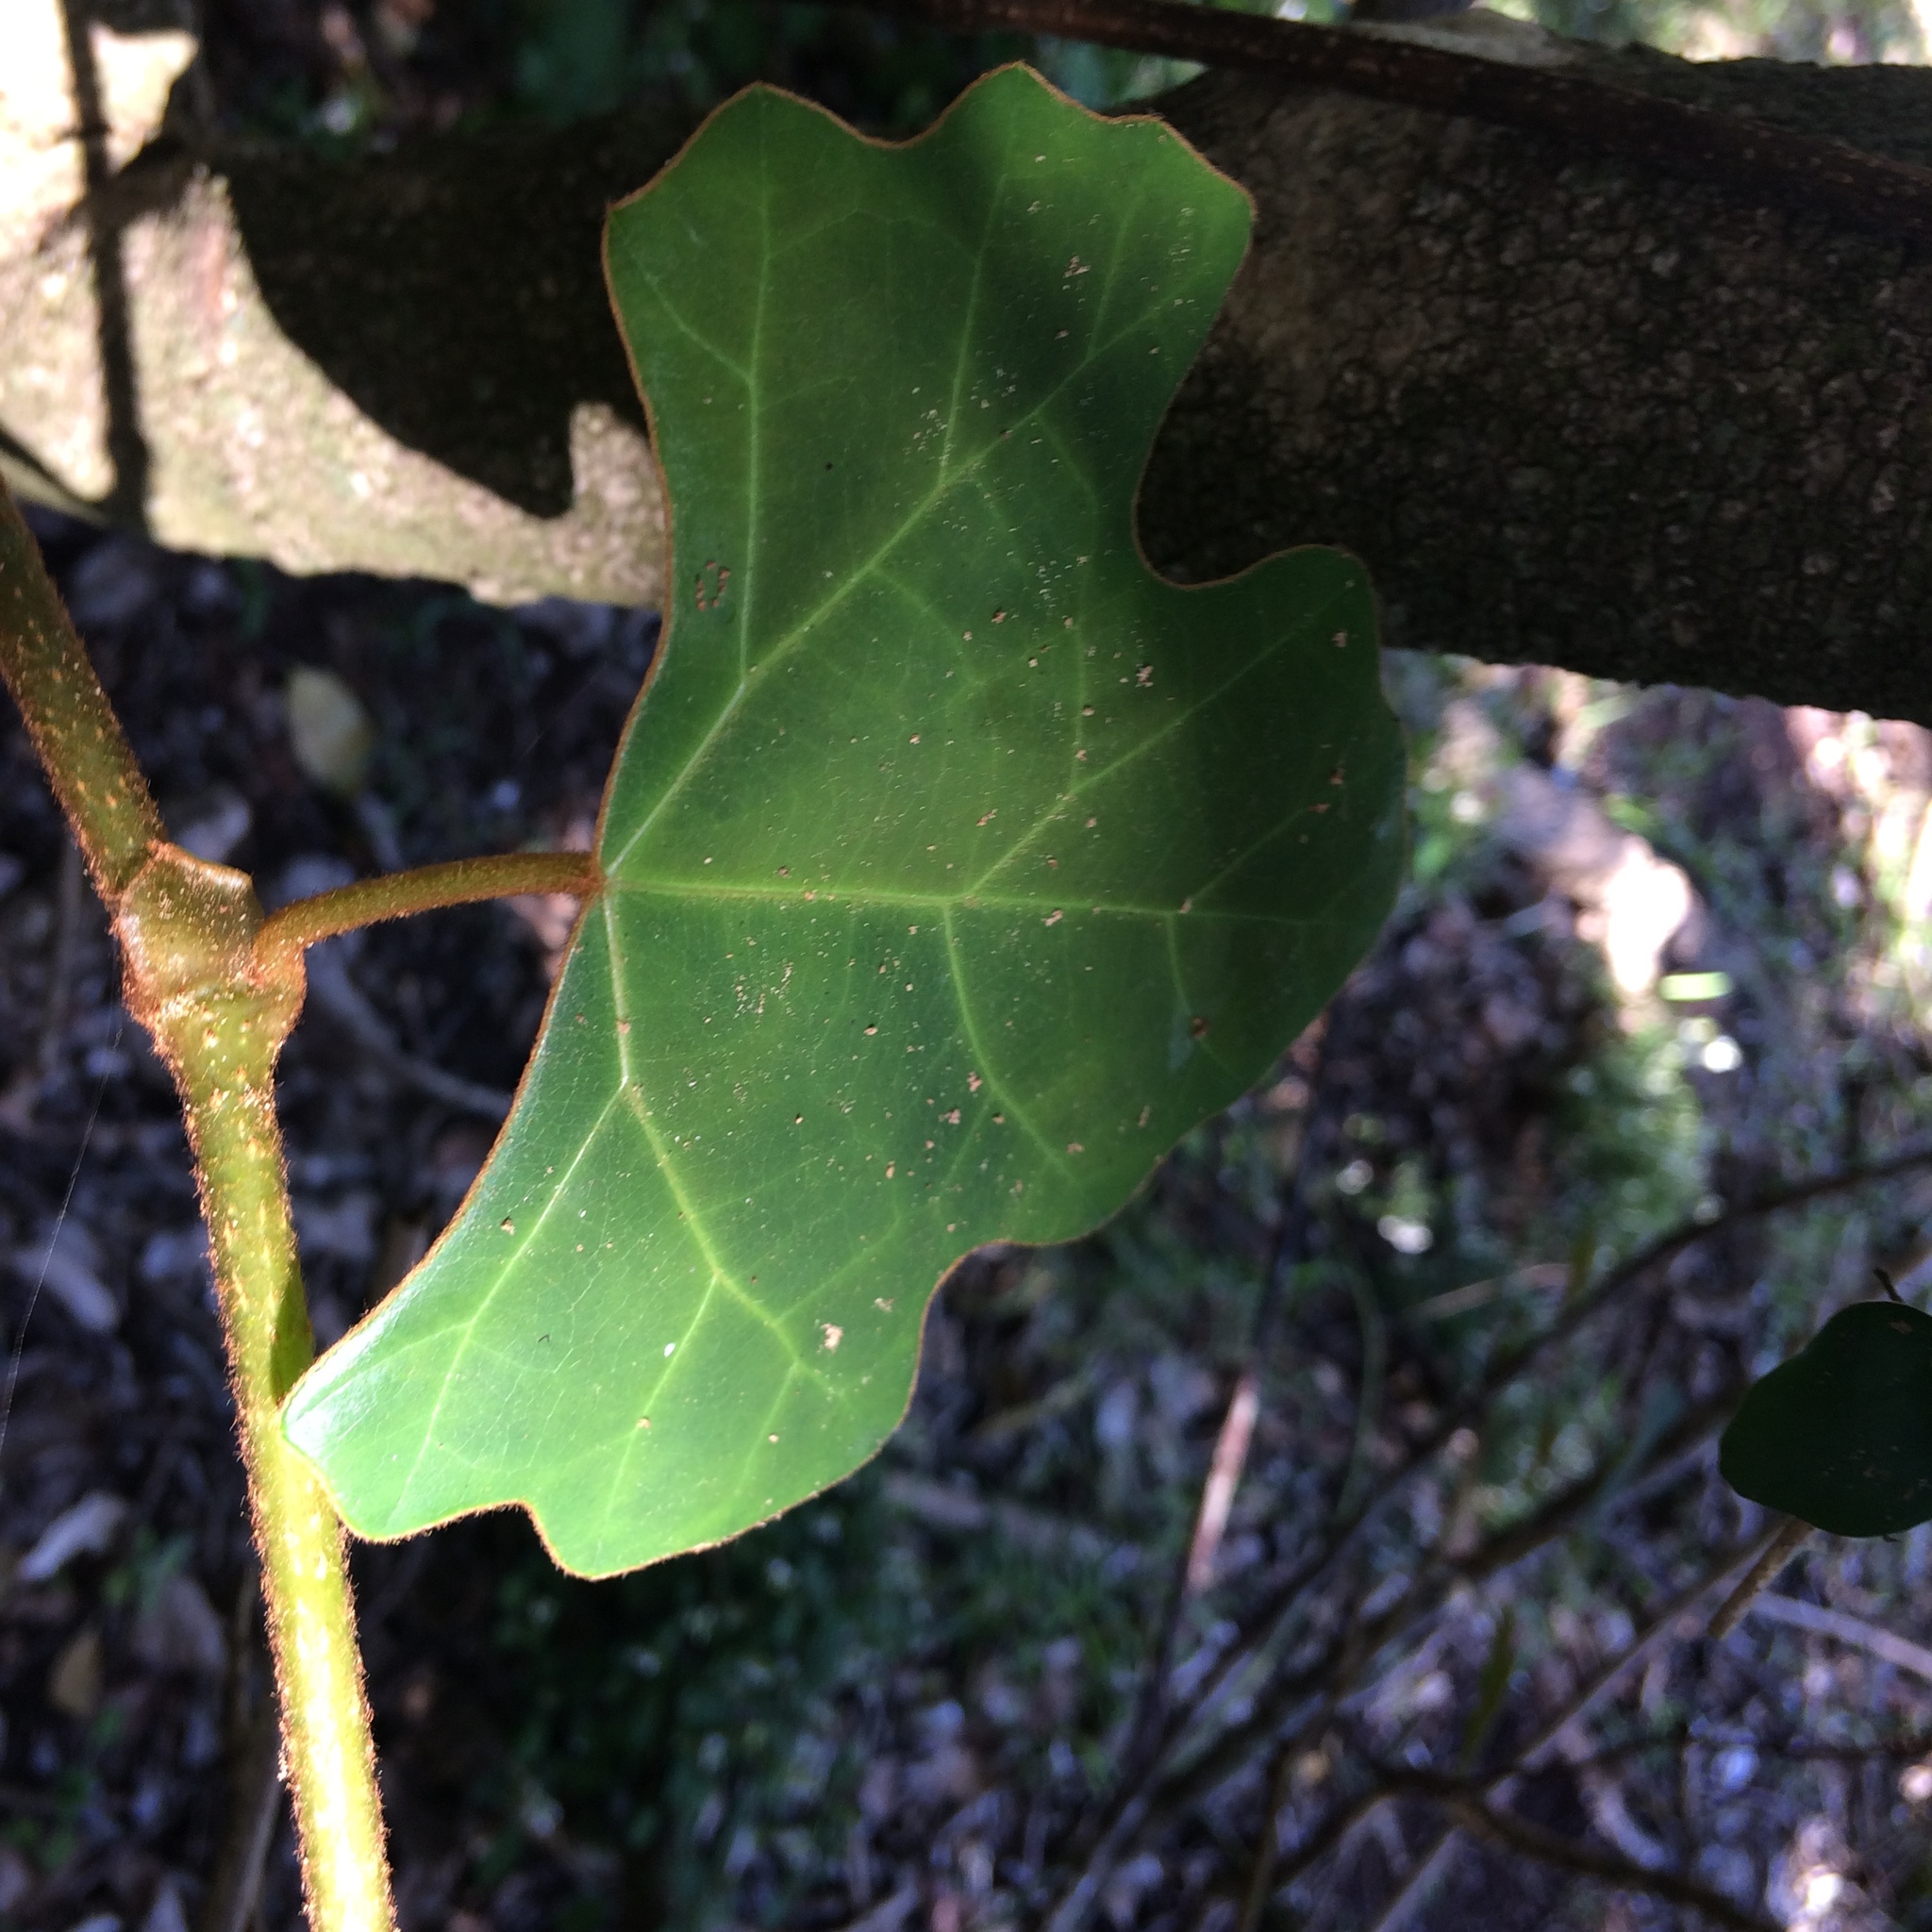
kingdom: Plantae
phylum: Tracheophyta
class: Magnoliopsida
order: Vitales
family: Vitaceae
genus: Rhoicissus
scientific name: Rhoicissus tomentosa
